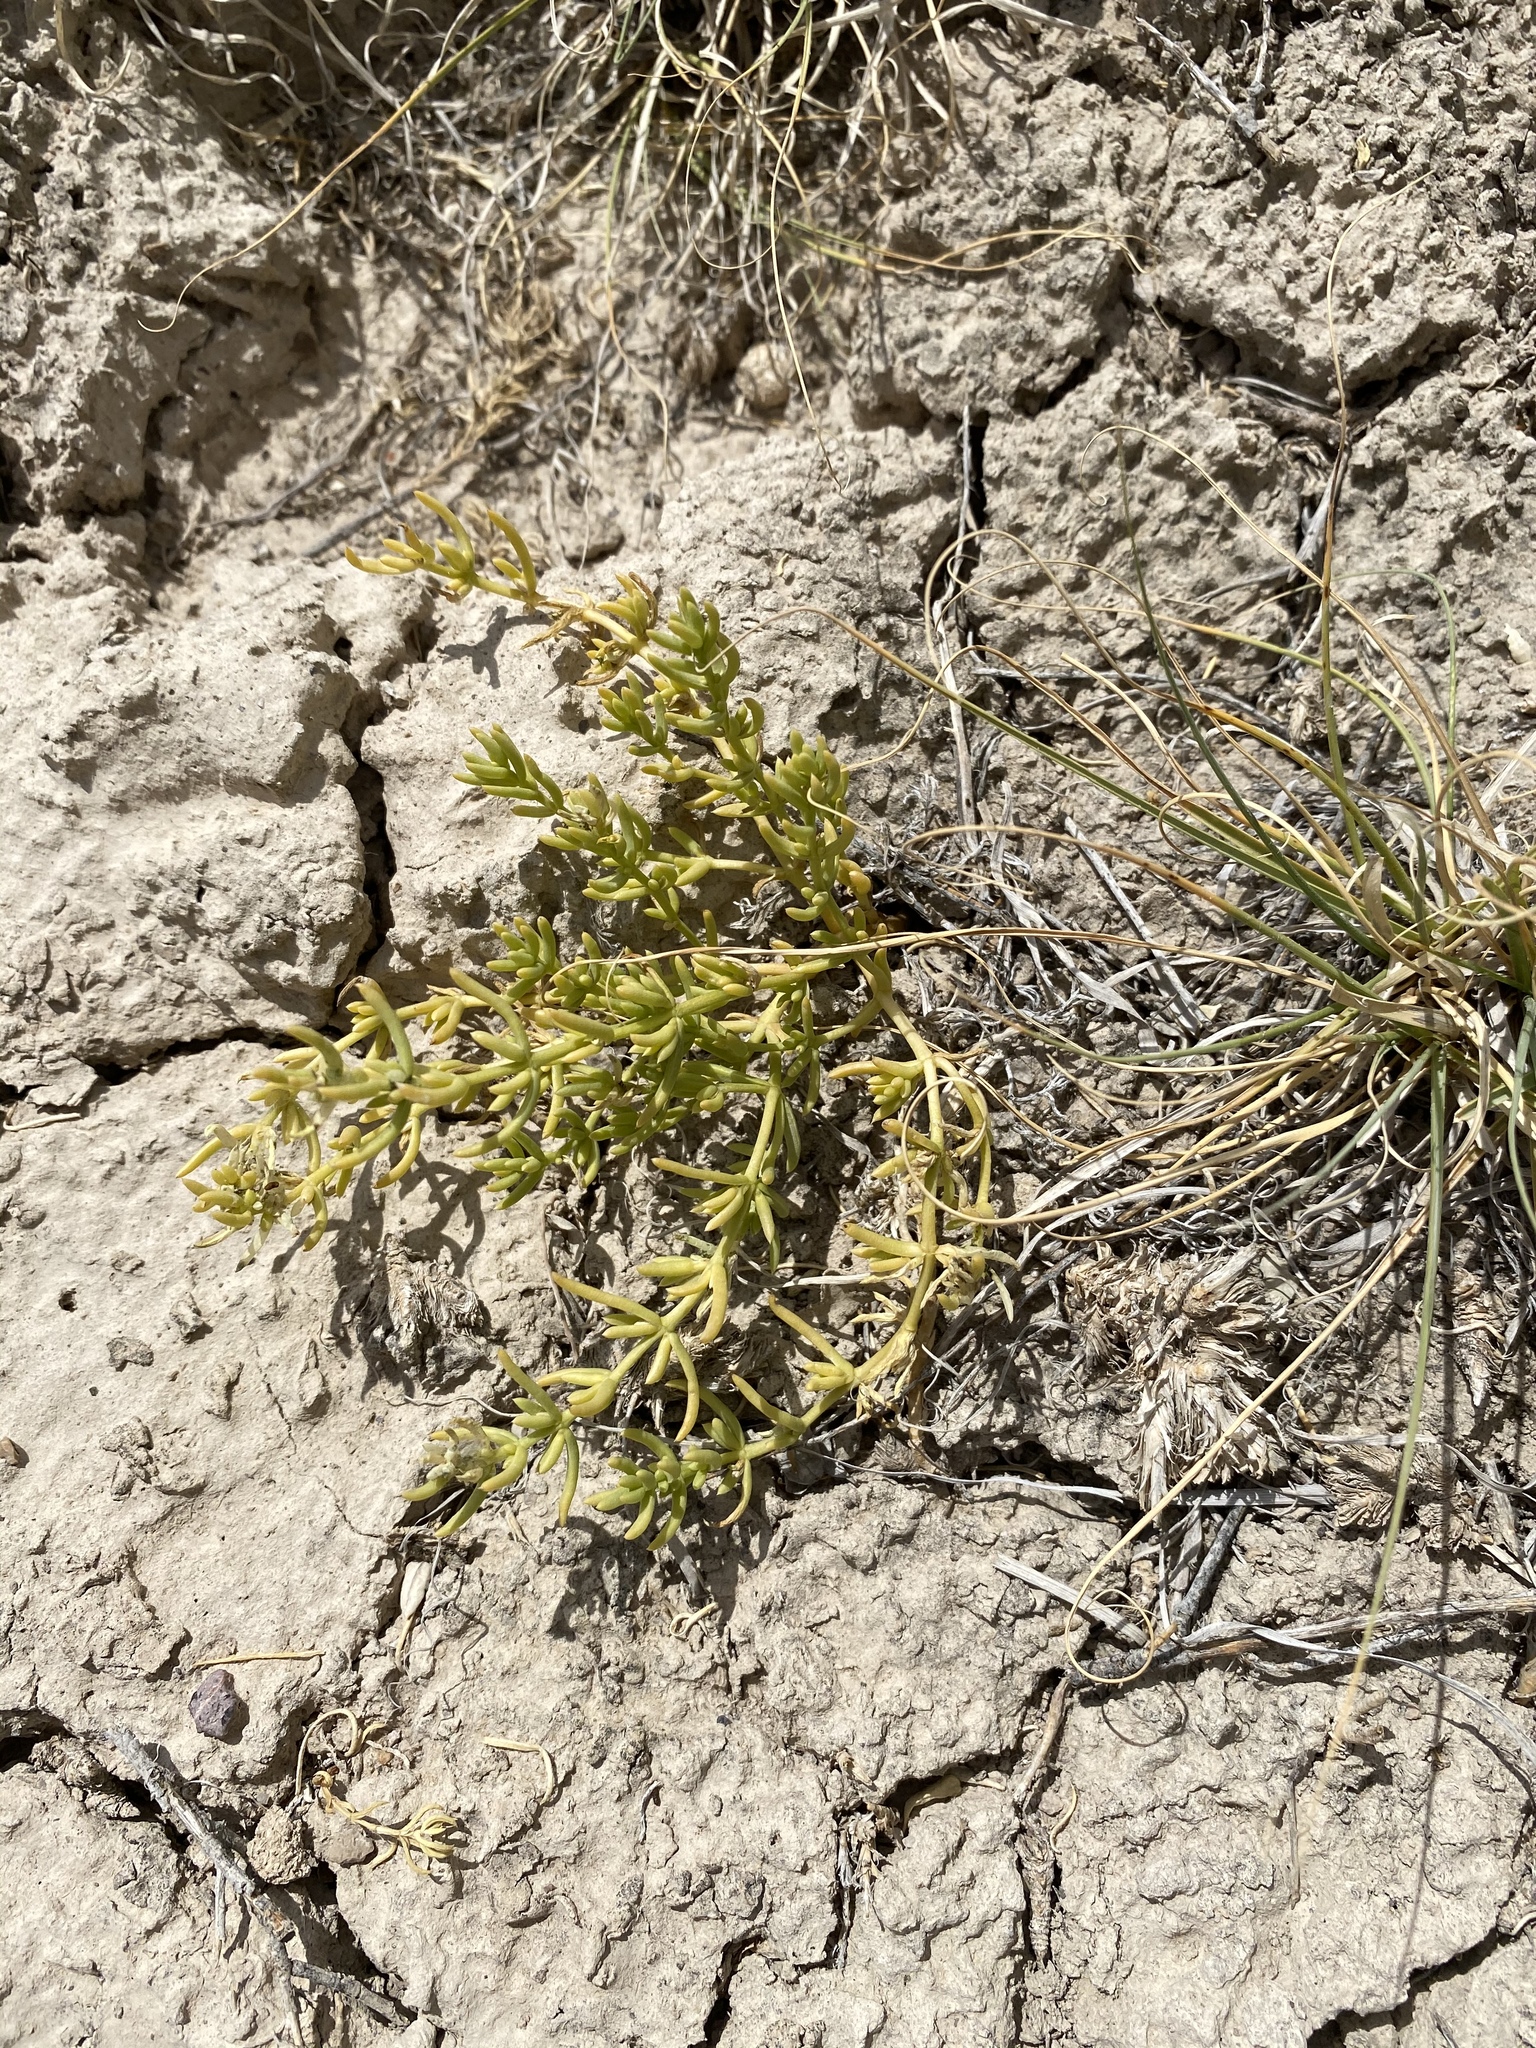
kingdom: Plantae
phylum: Tracheophyta
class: Magnoliopsida
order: Caryophyllales
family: Amaranthaceae
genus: Nitrophila
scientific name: Nitrophila occidentalis
